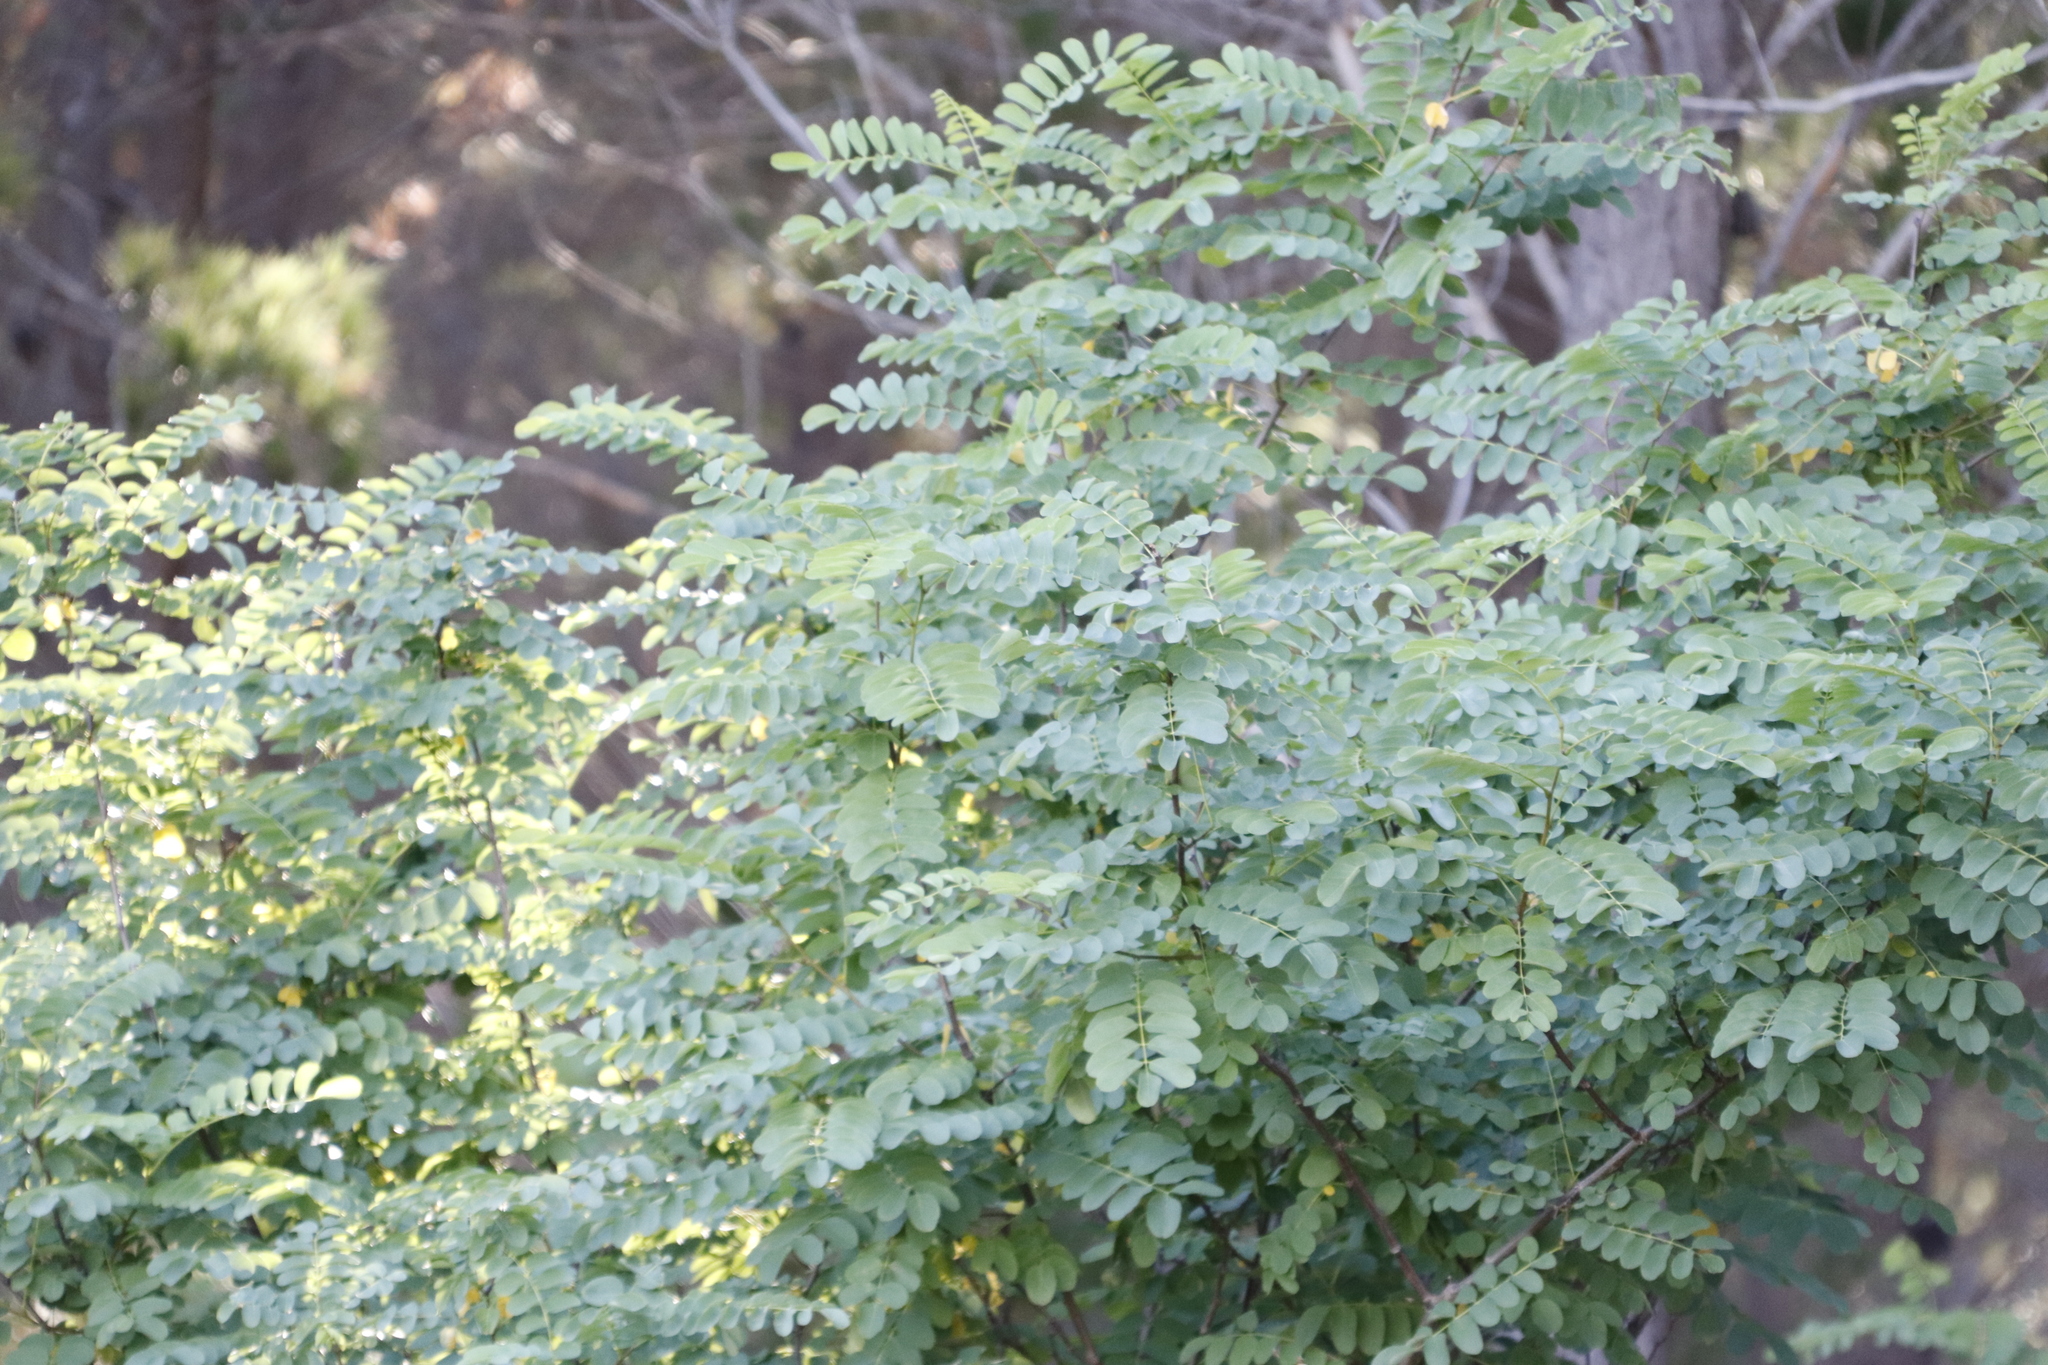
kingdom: Plantae
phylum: Tracheophyta
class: Magnoliopsida
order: Fabales
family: Fabaceae
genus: Robinia
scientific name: Robinia pseudoacacia
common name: Black locust
